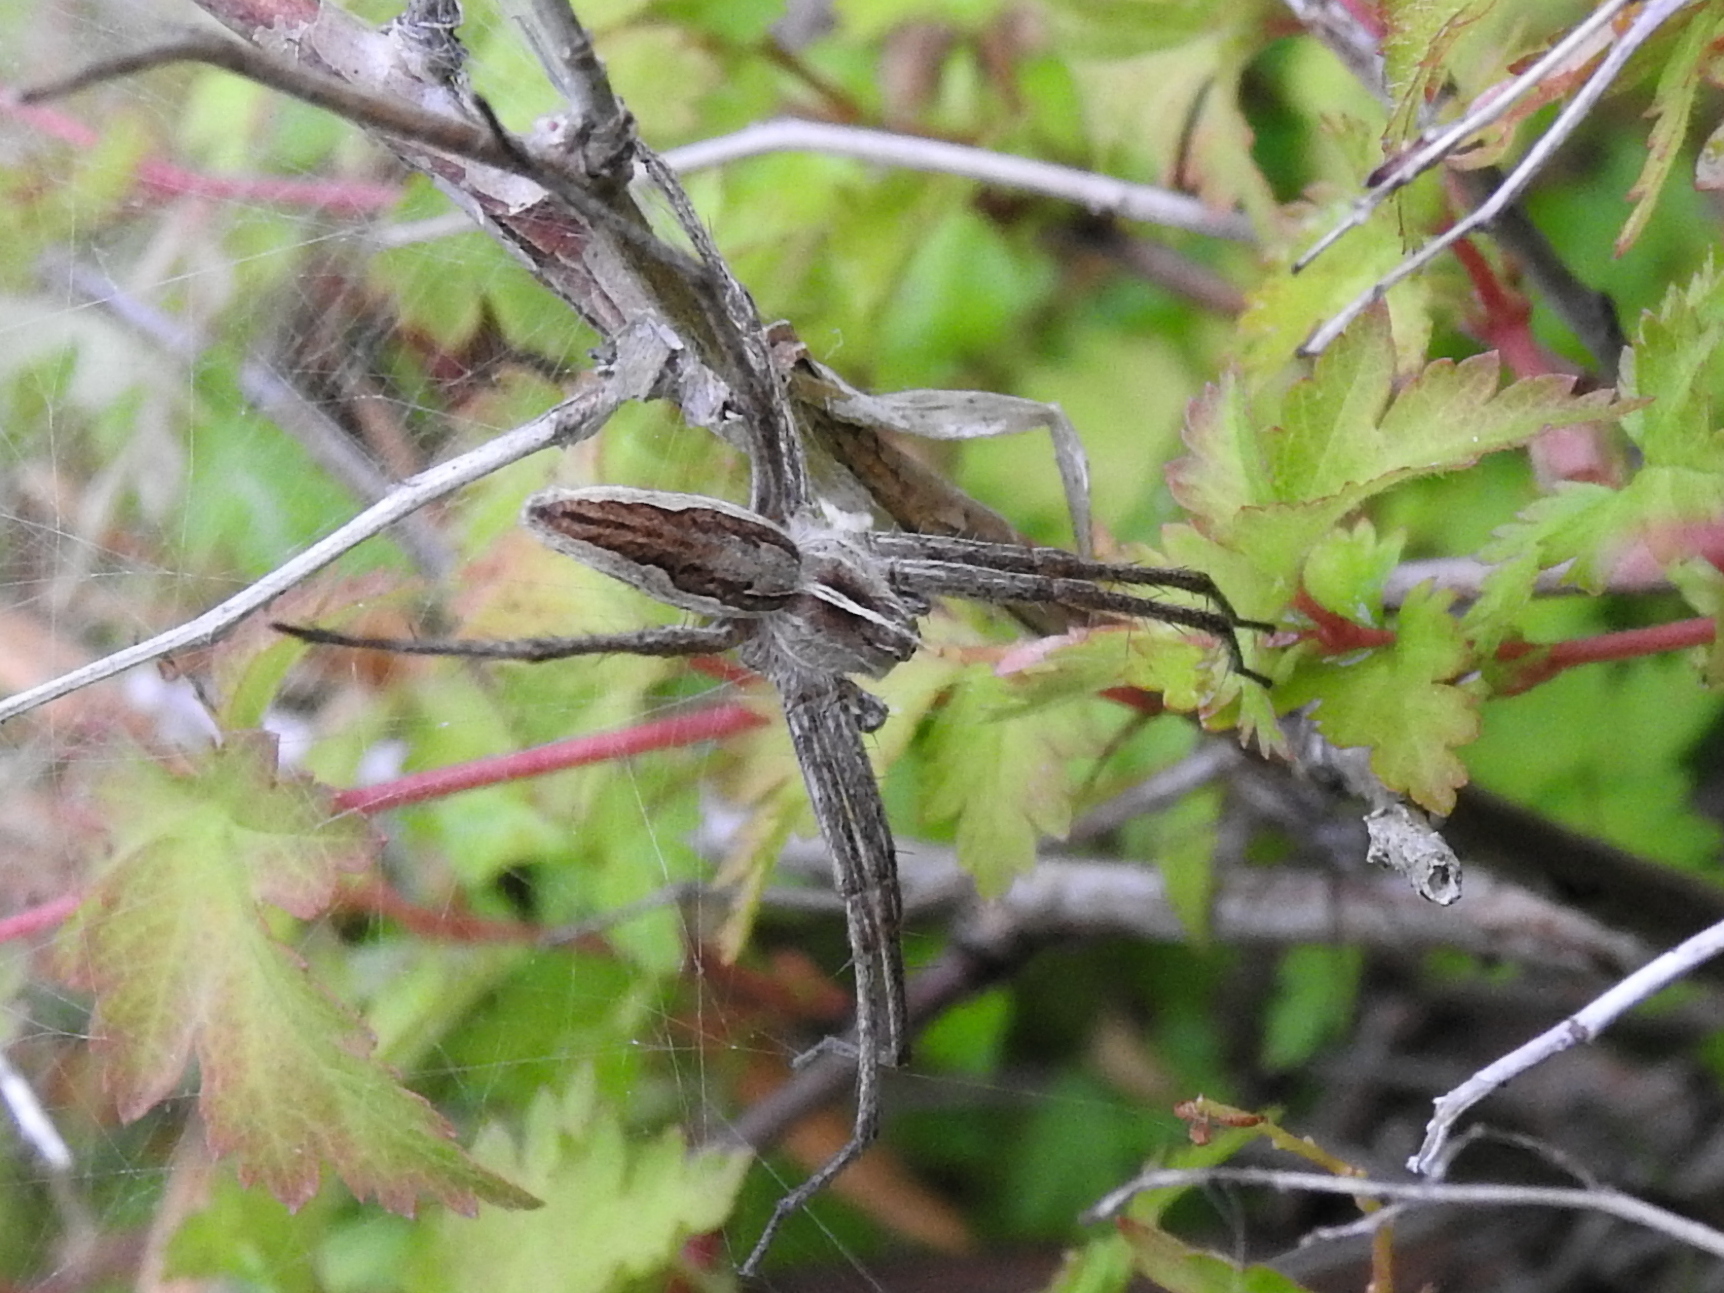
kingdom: Animalia
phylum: Arthropoda
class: Arachnida
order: Araneae
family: Pisauridae
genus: Pisaura
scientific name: Pisaura mirabilis
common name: Tent spider
